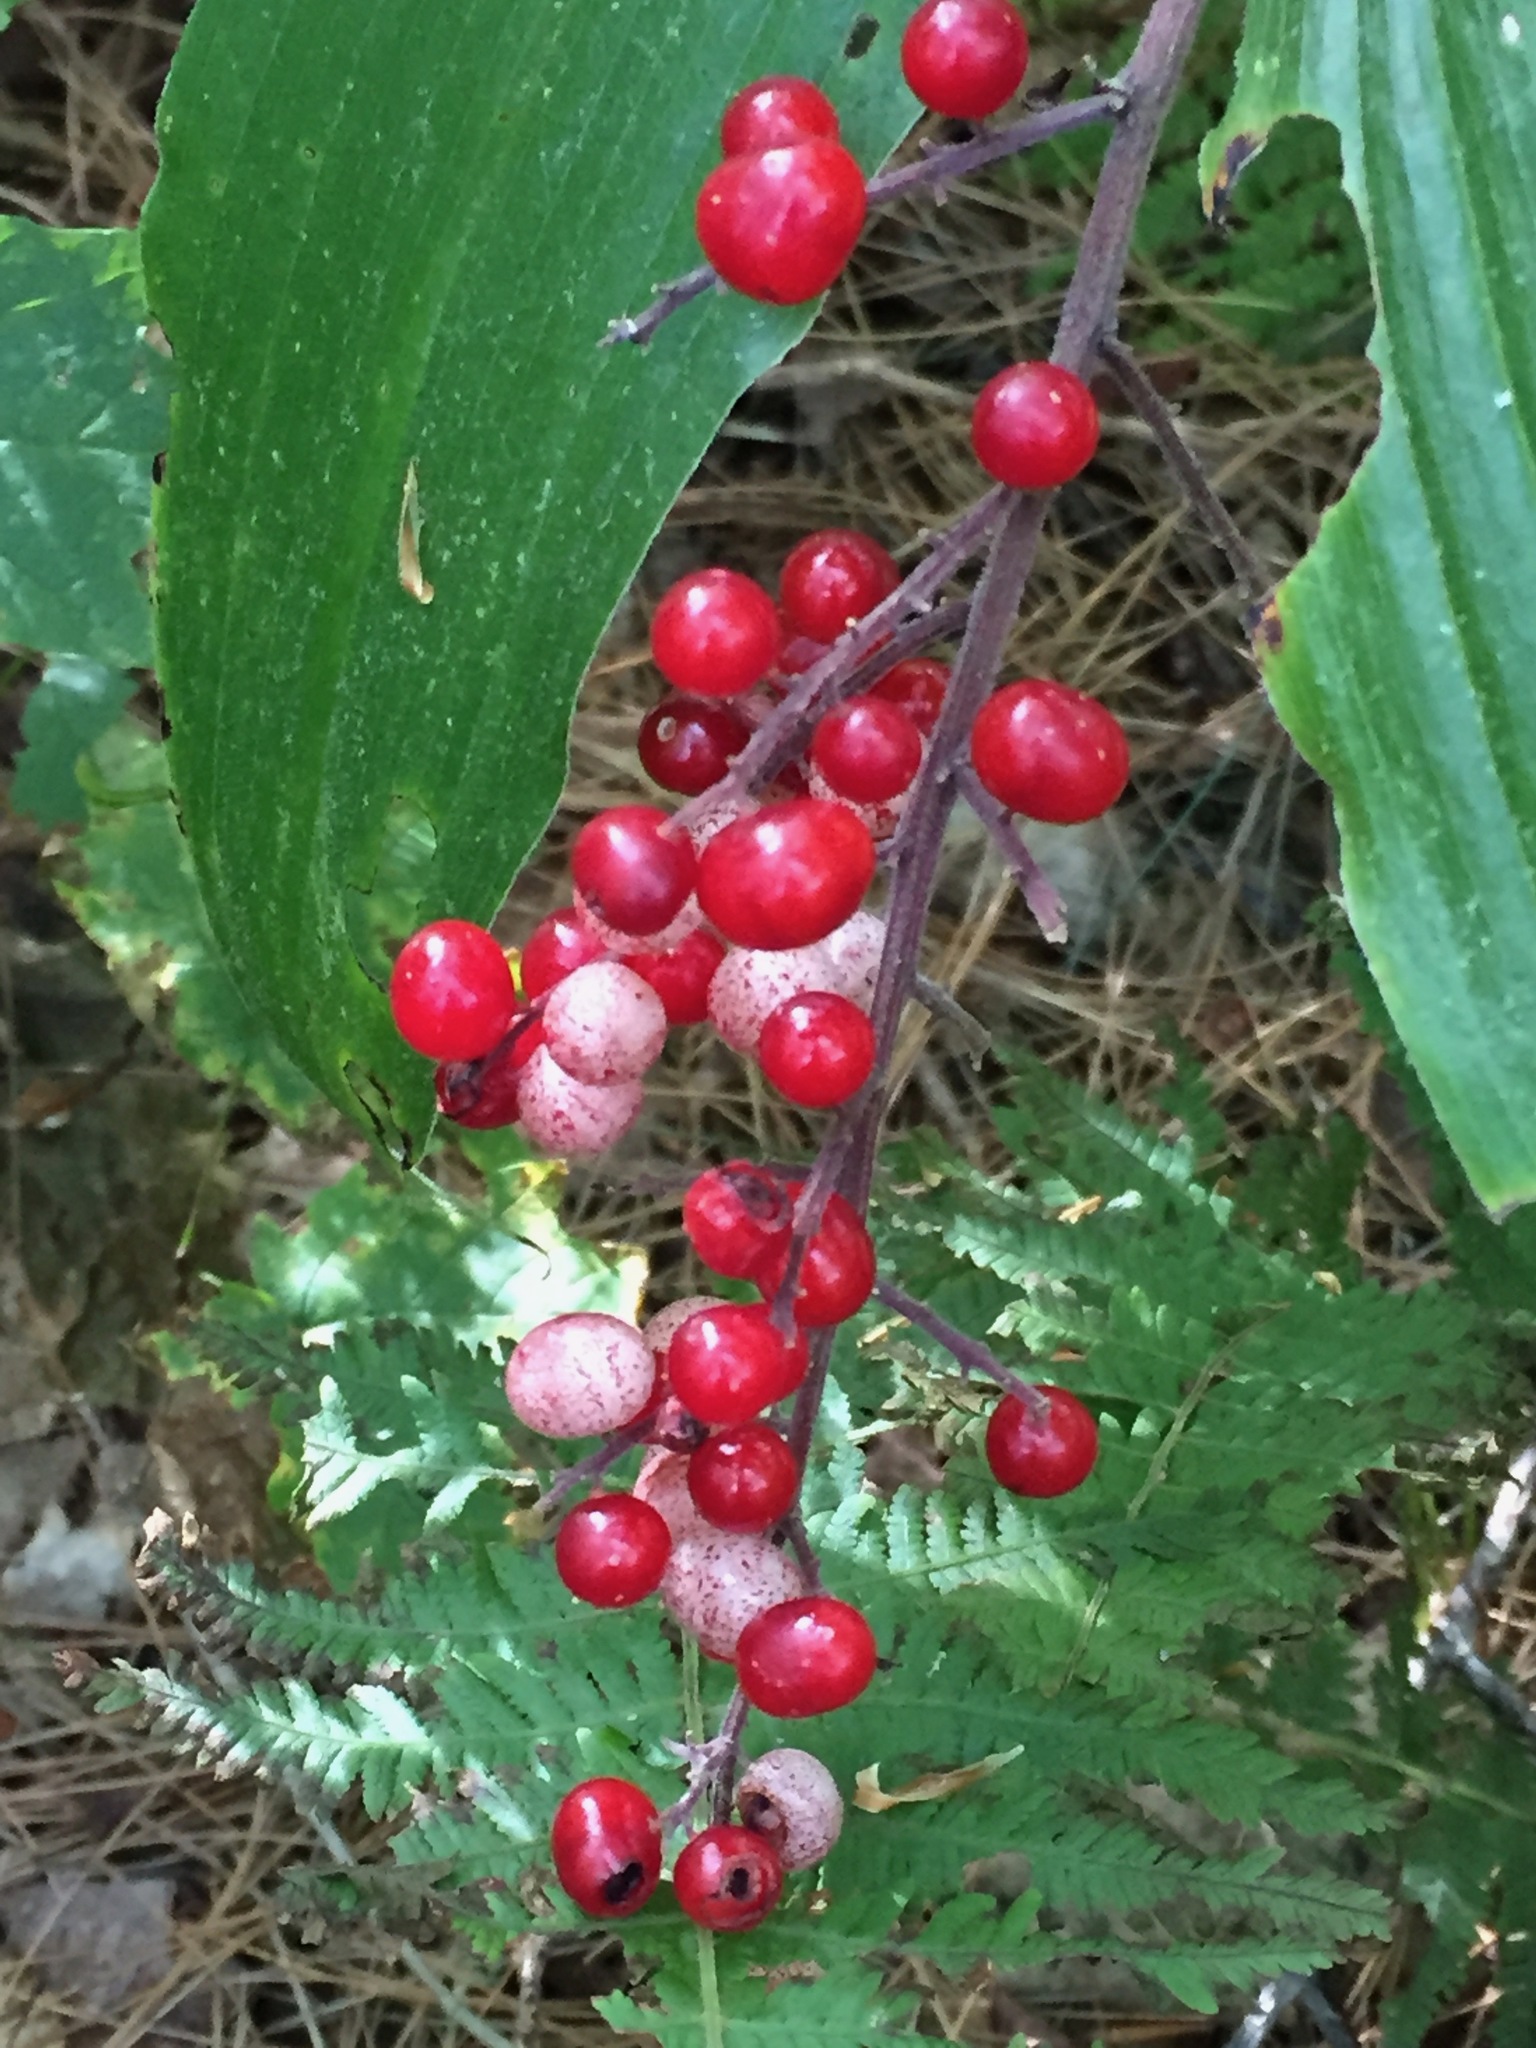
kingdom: Plantae
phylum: Tracheophyta
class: Liliopsida
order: Asparagales
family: Asparagaceae
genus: Maianthemum
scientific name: Maianthemum racemosum
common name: False spikenard
